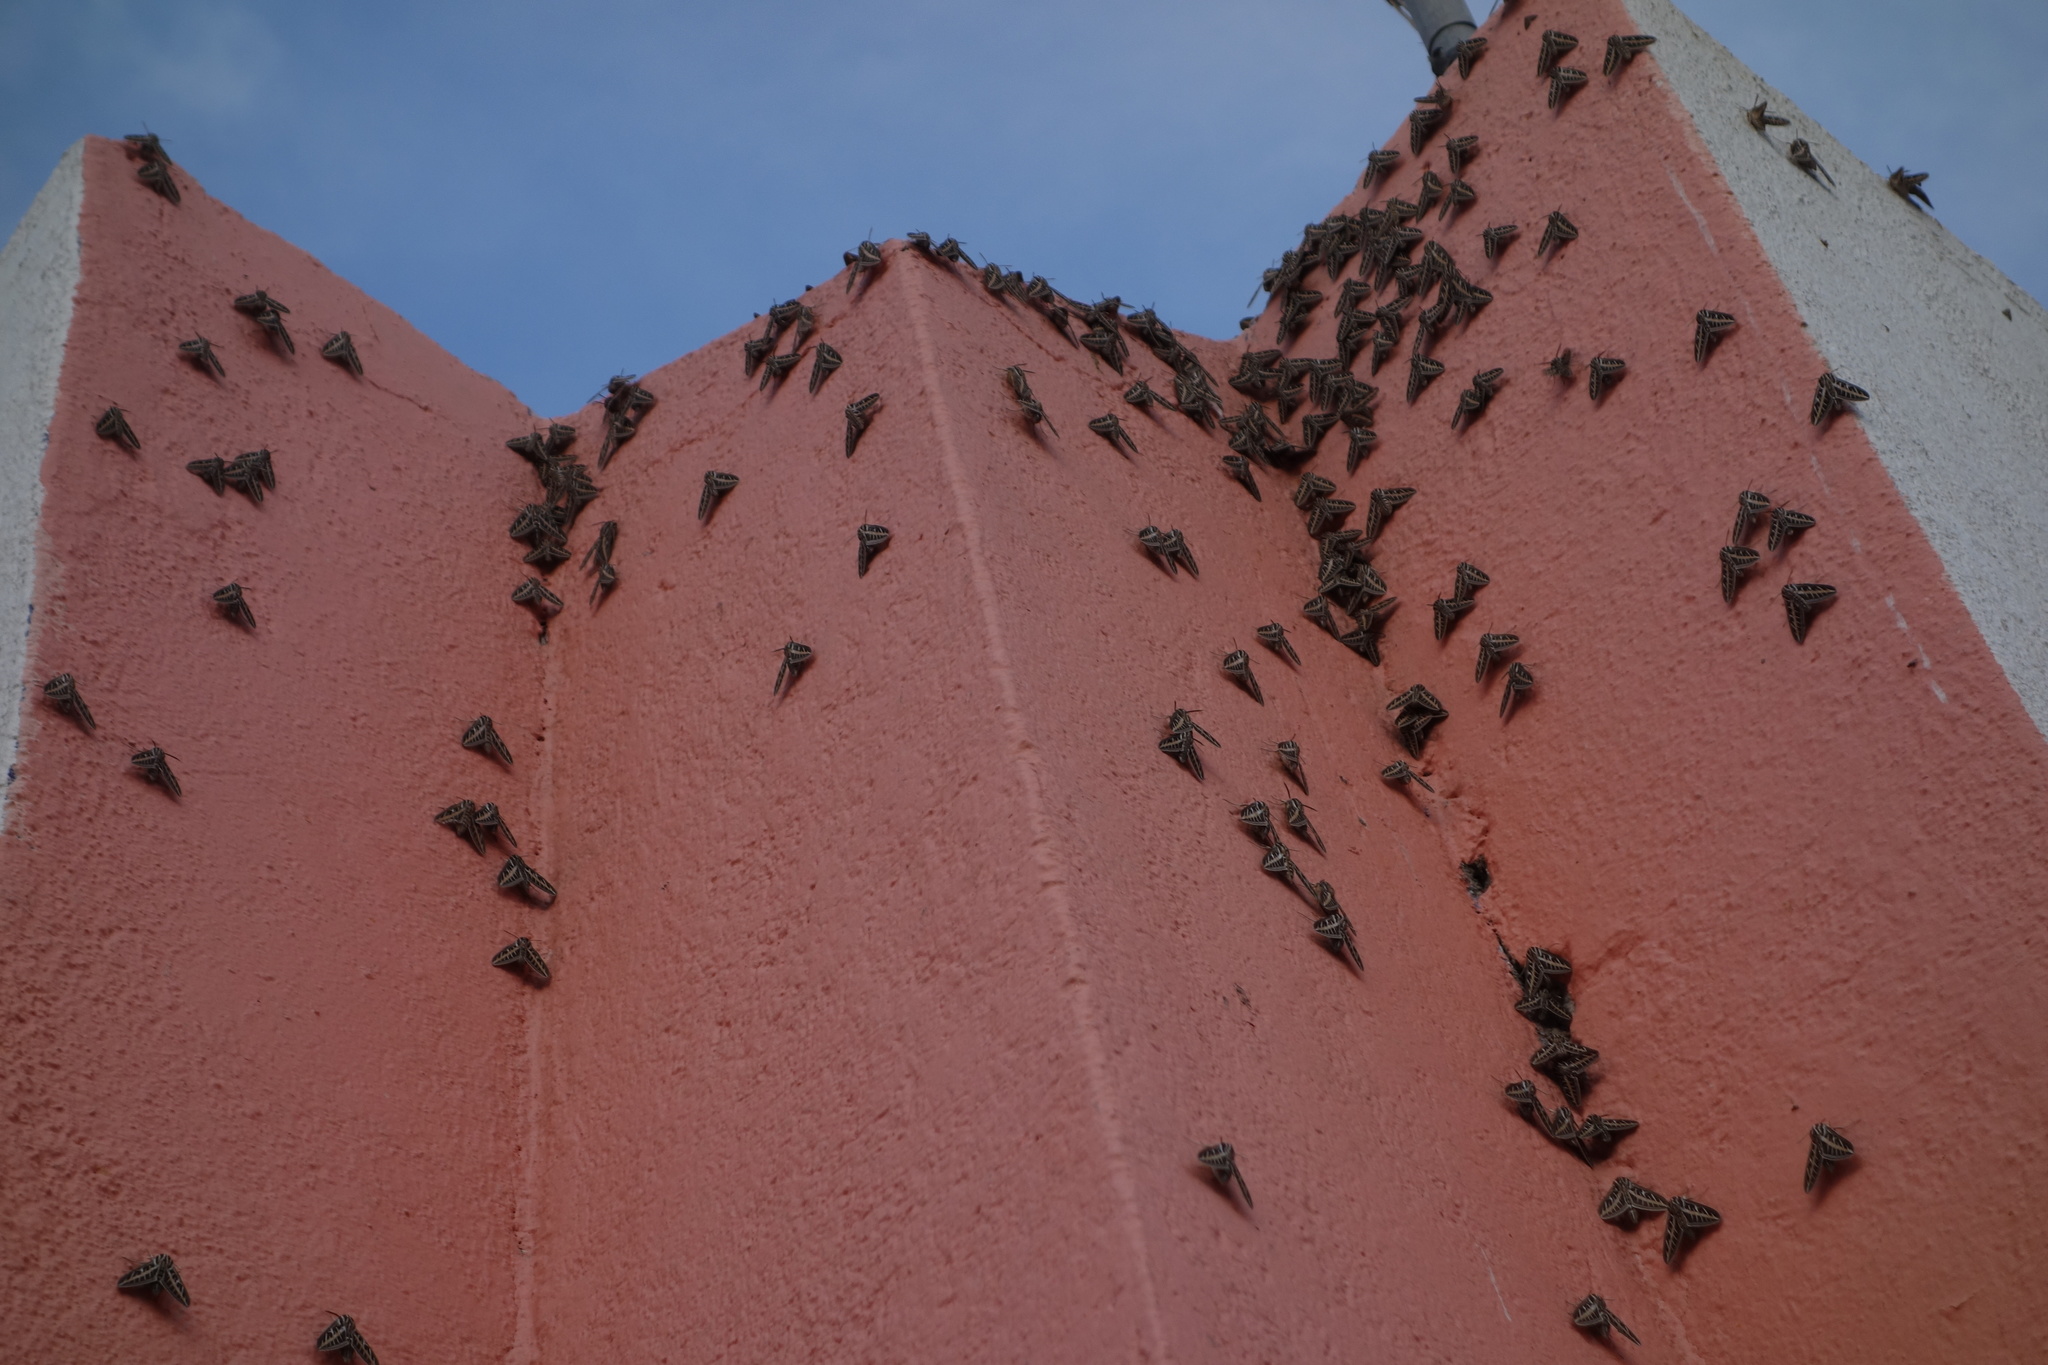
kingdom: Animalia
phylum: Arthropoda
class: Insecta
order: Lepidoptera
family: Sphingidae
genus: Hyles
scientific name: Hyles lineata
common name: White-lined sphinx
